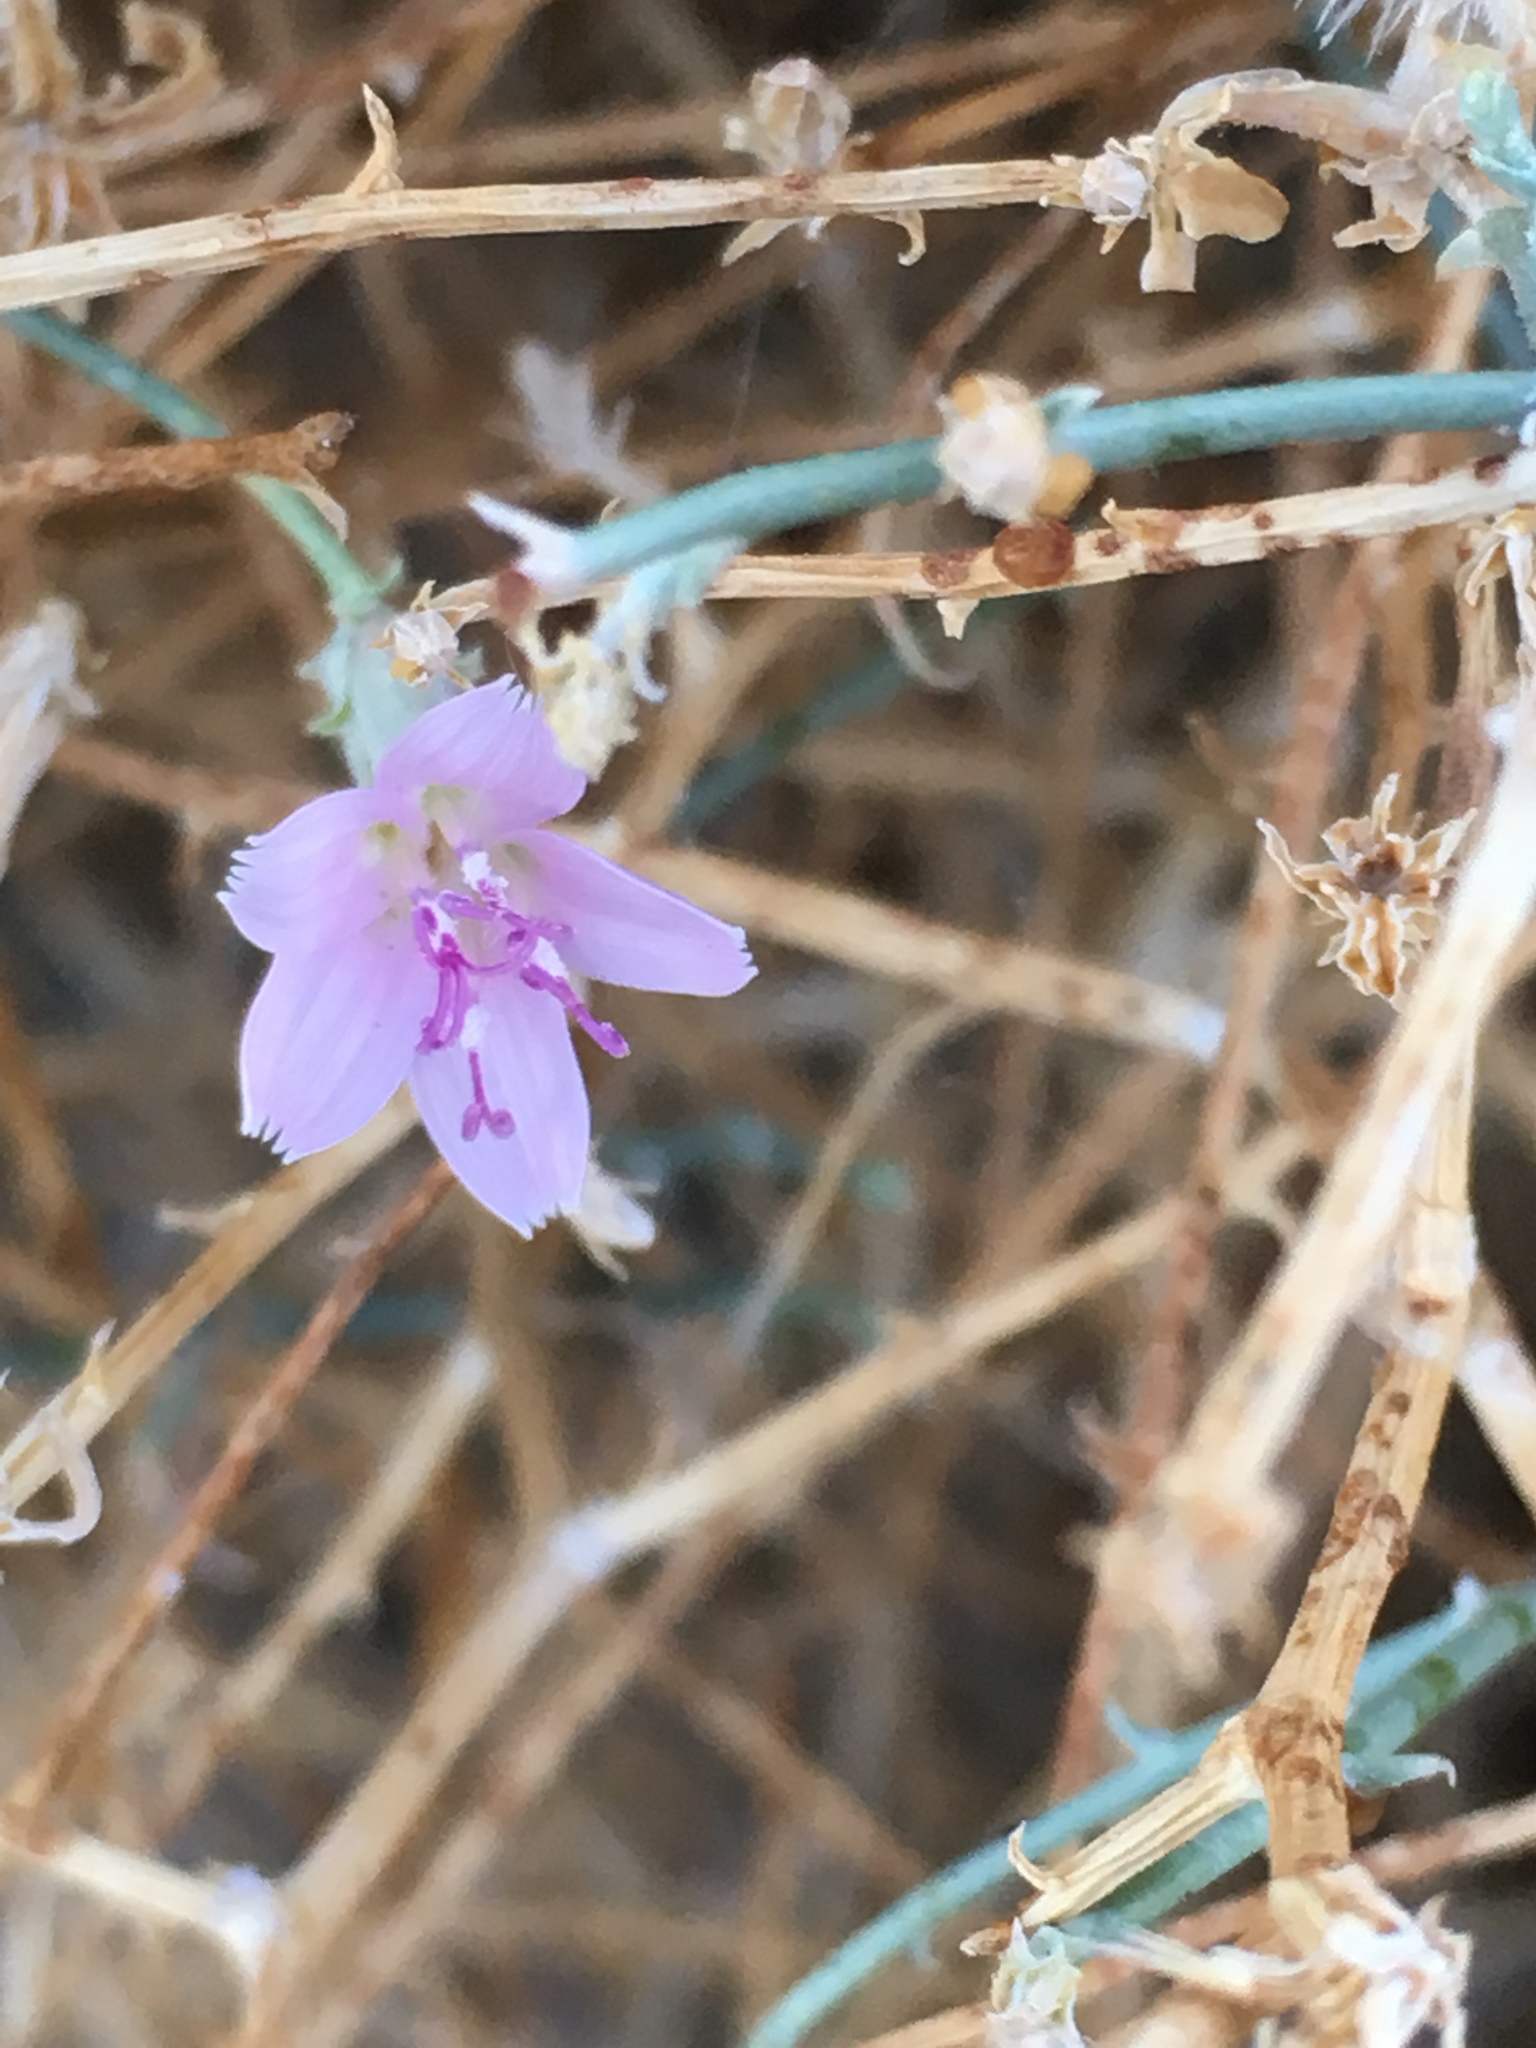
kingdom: Plantae
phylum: Tracheophyta
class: Magnoliopsida
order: Asterales
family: Asteraceae
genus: Stephanomeria
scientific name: Stephanomeria pauciflora
